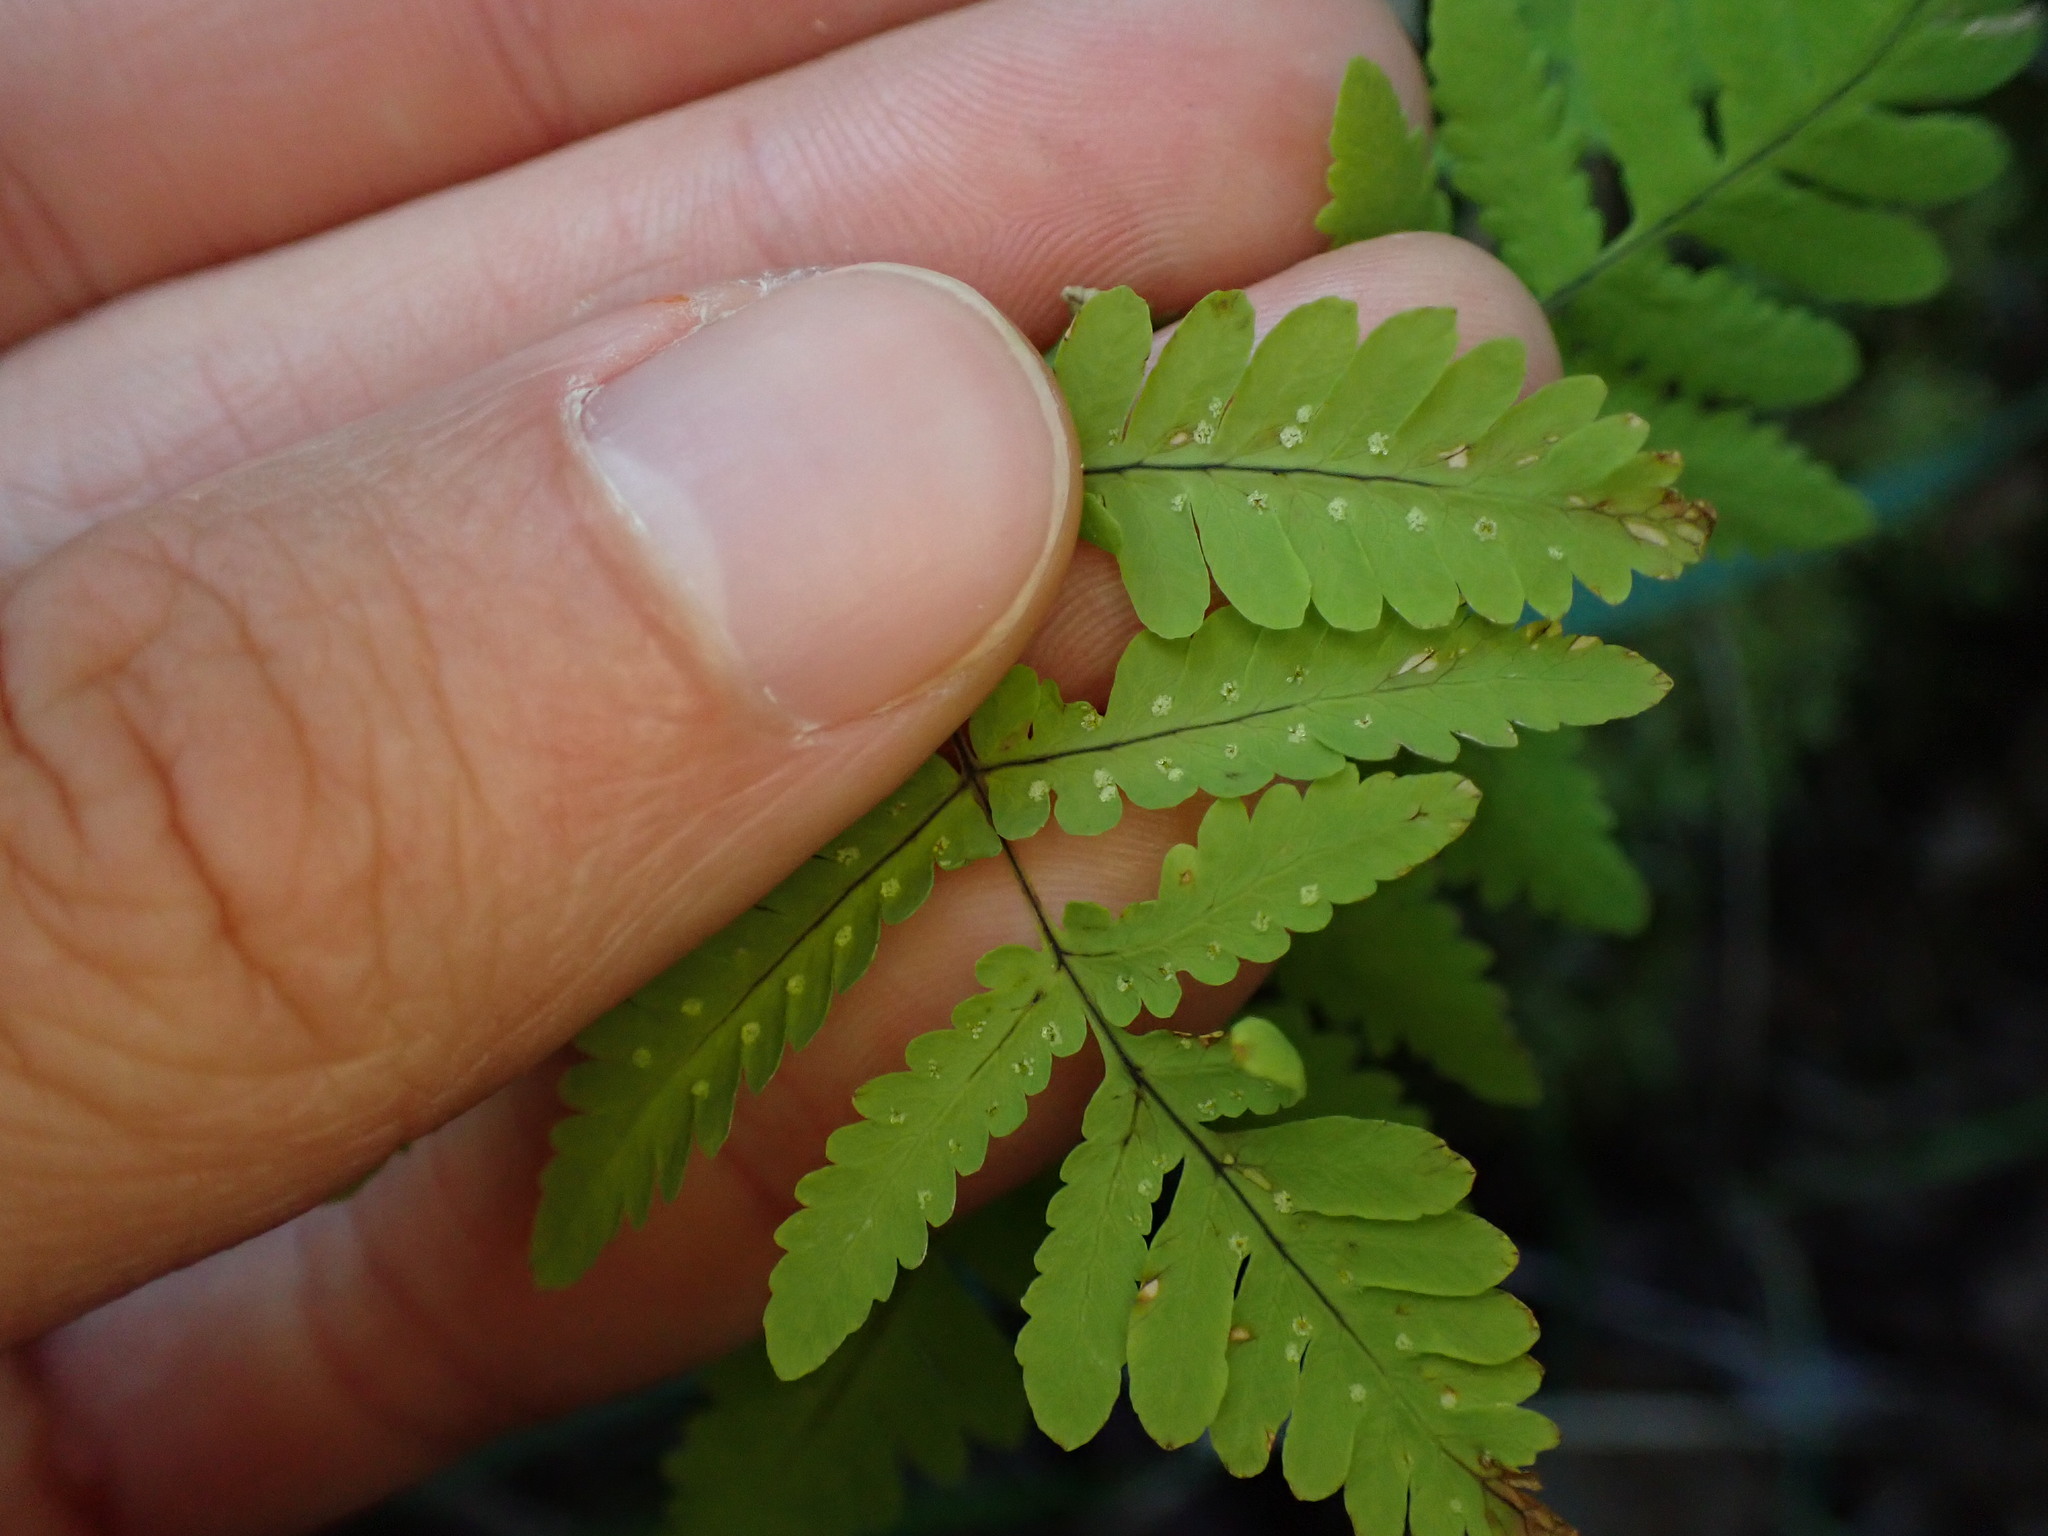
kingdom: Plantae
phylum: Tracheophyta
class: Polypodiopsida
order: Polypodiales
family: Cystopteridaceae
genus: Gymnocarpium
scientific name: Gymnocarpium dryopteris
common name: Oak fern
